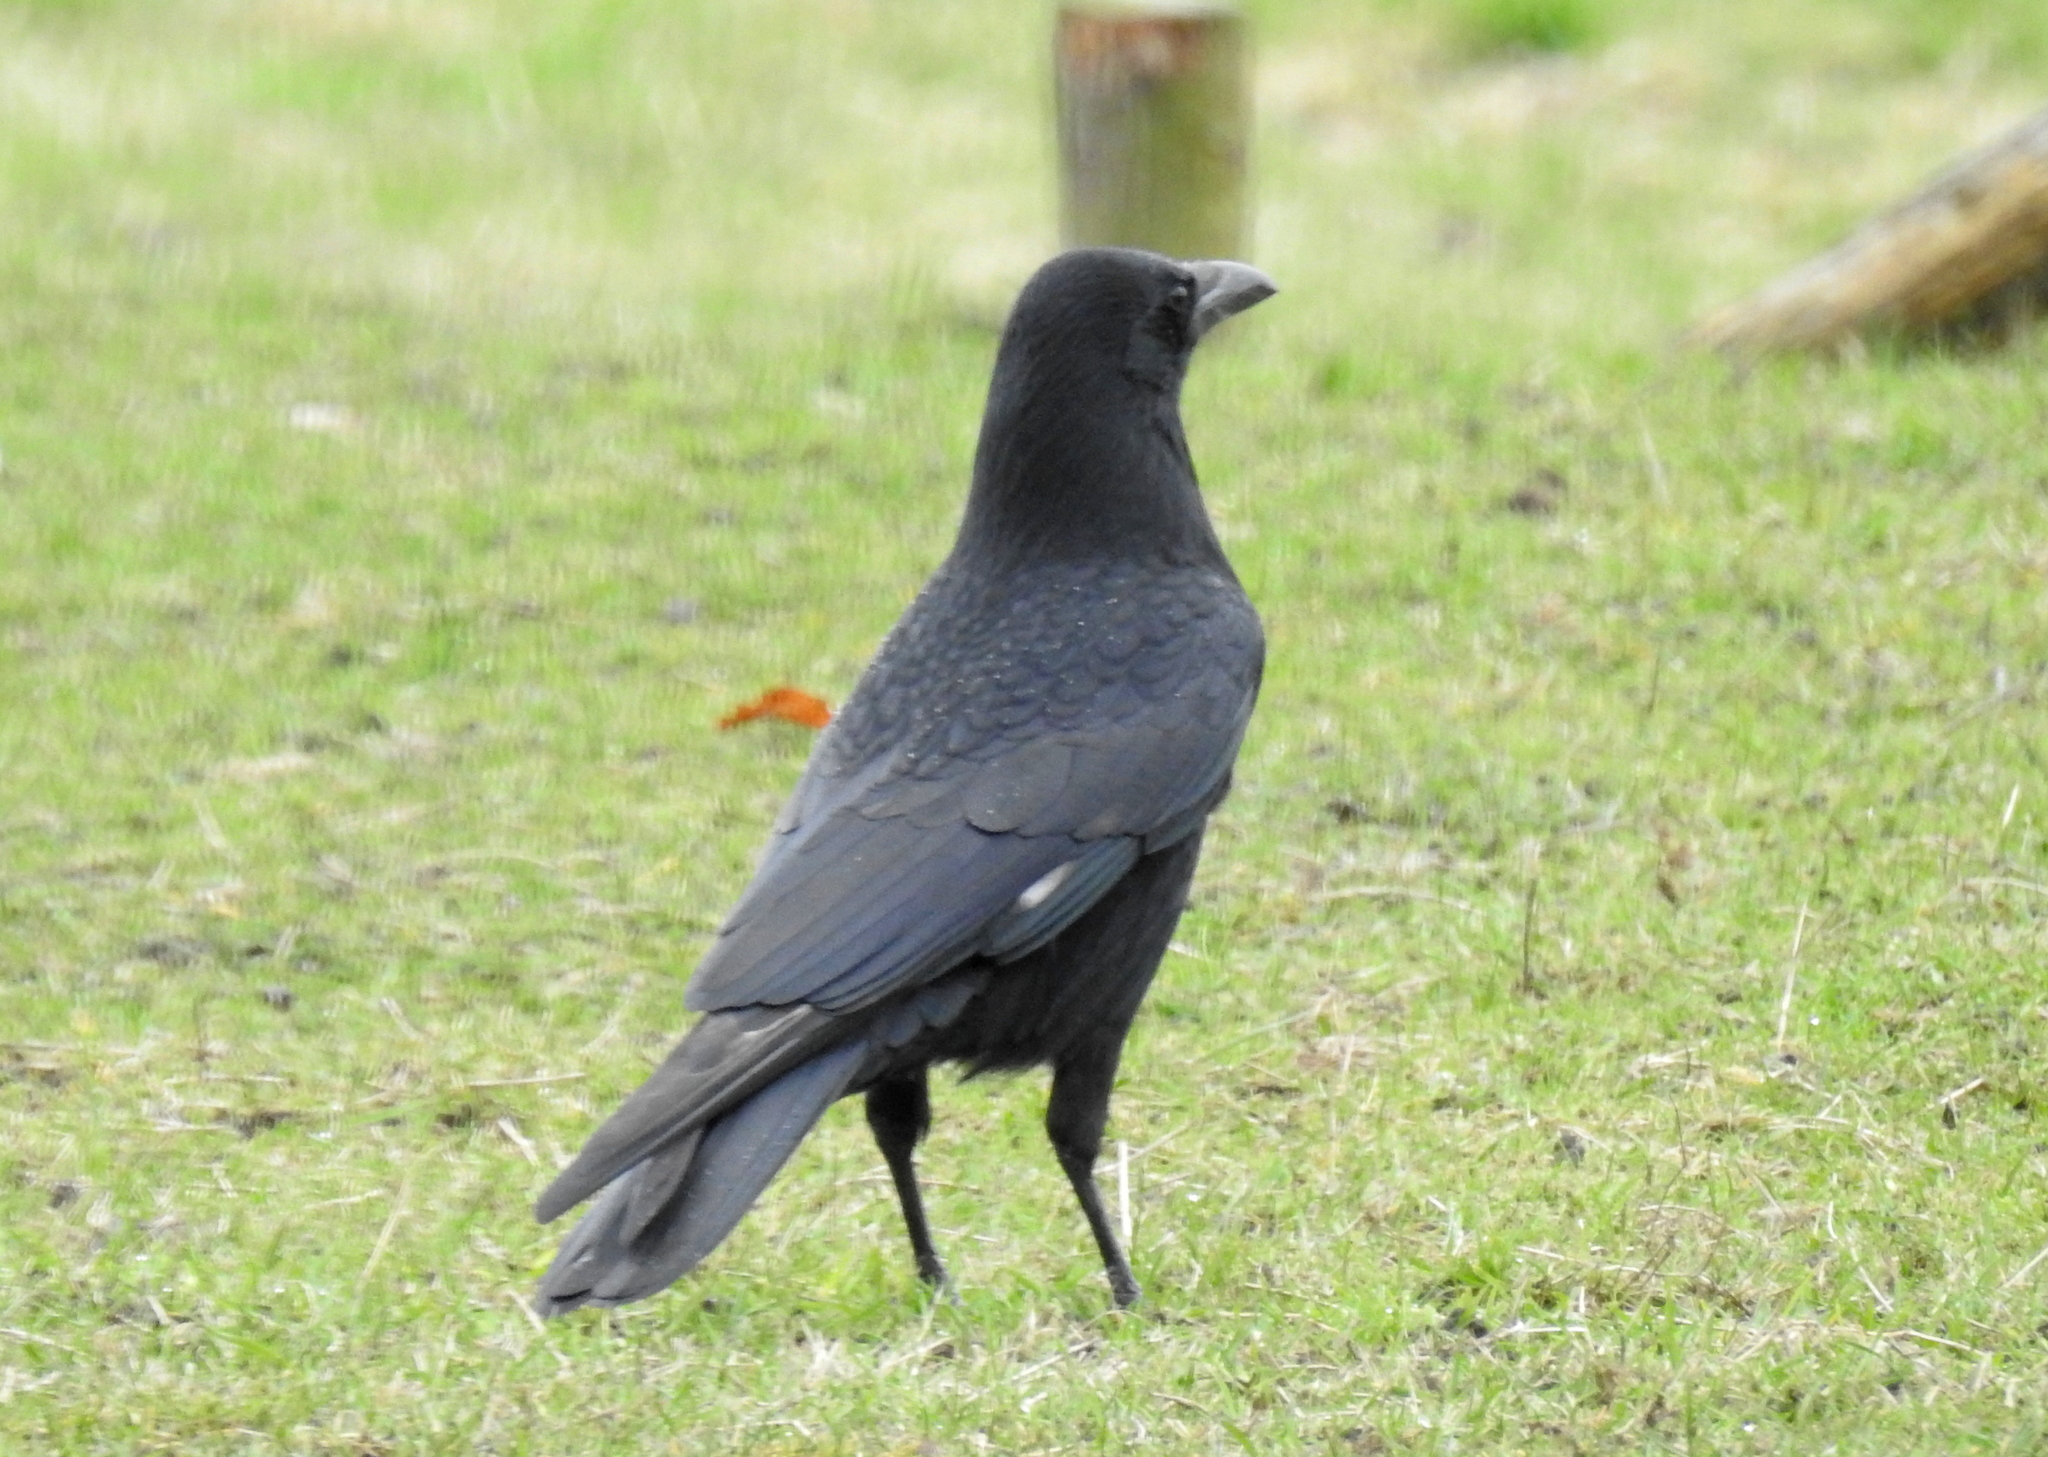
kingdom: Animalia
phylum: Chordata
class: Aves
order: Passeriformes
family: Corvidae
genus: Corvus
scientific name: Corvus corone
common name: Carrion crow
